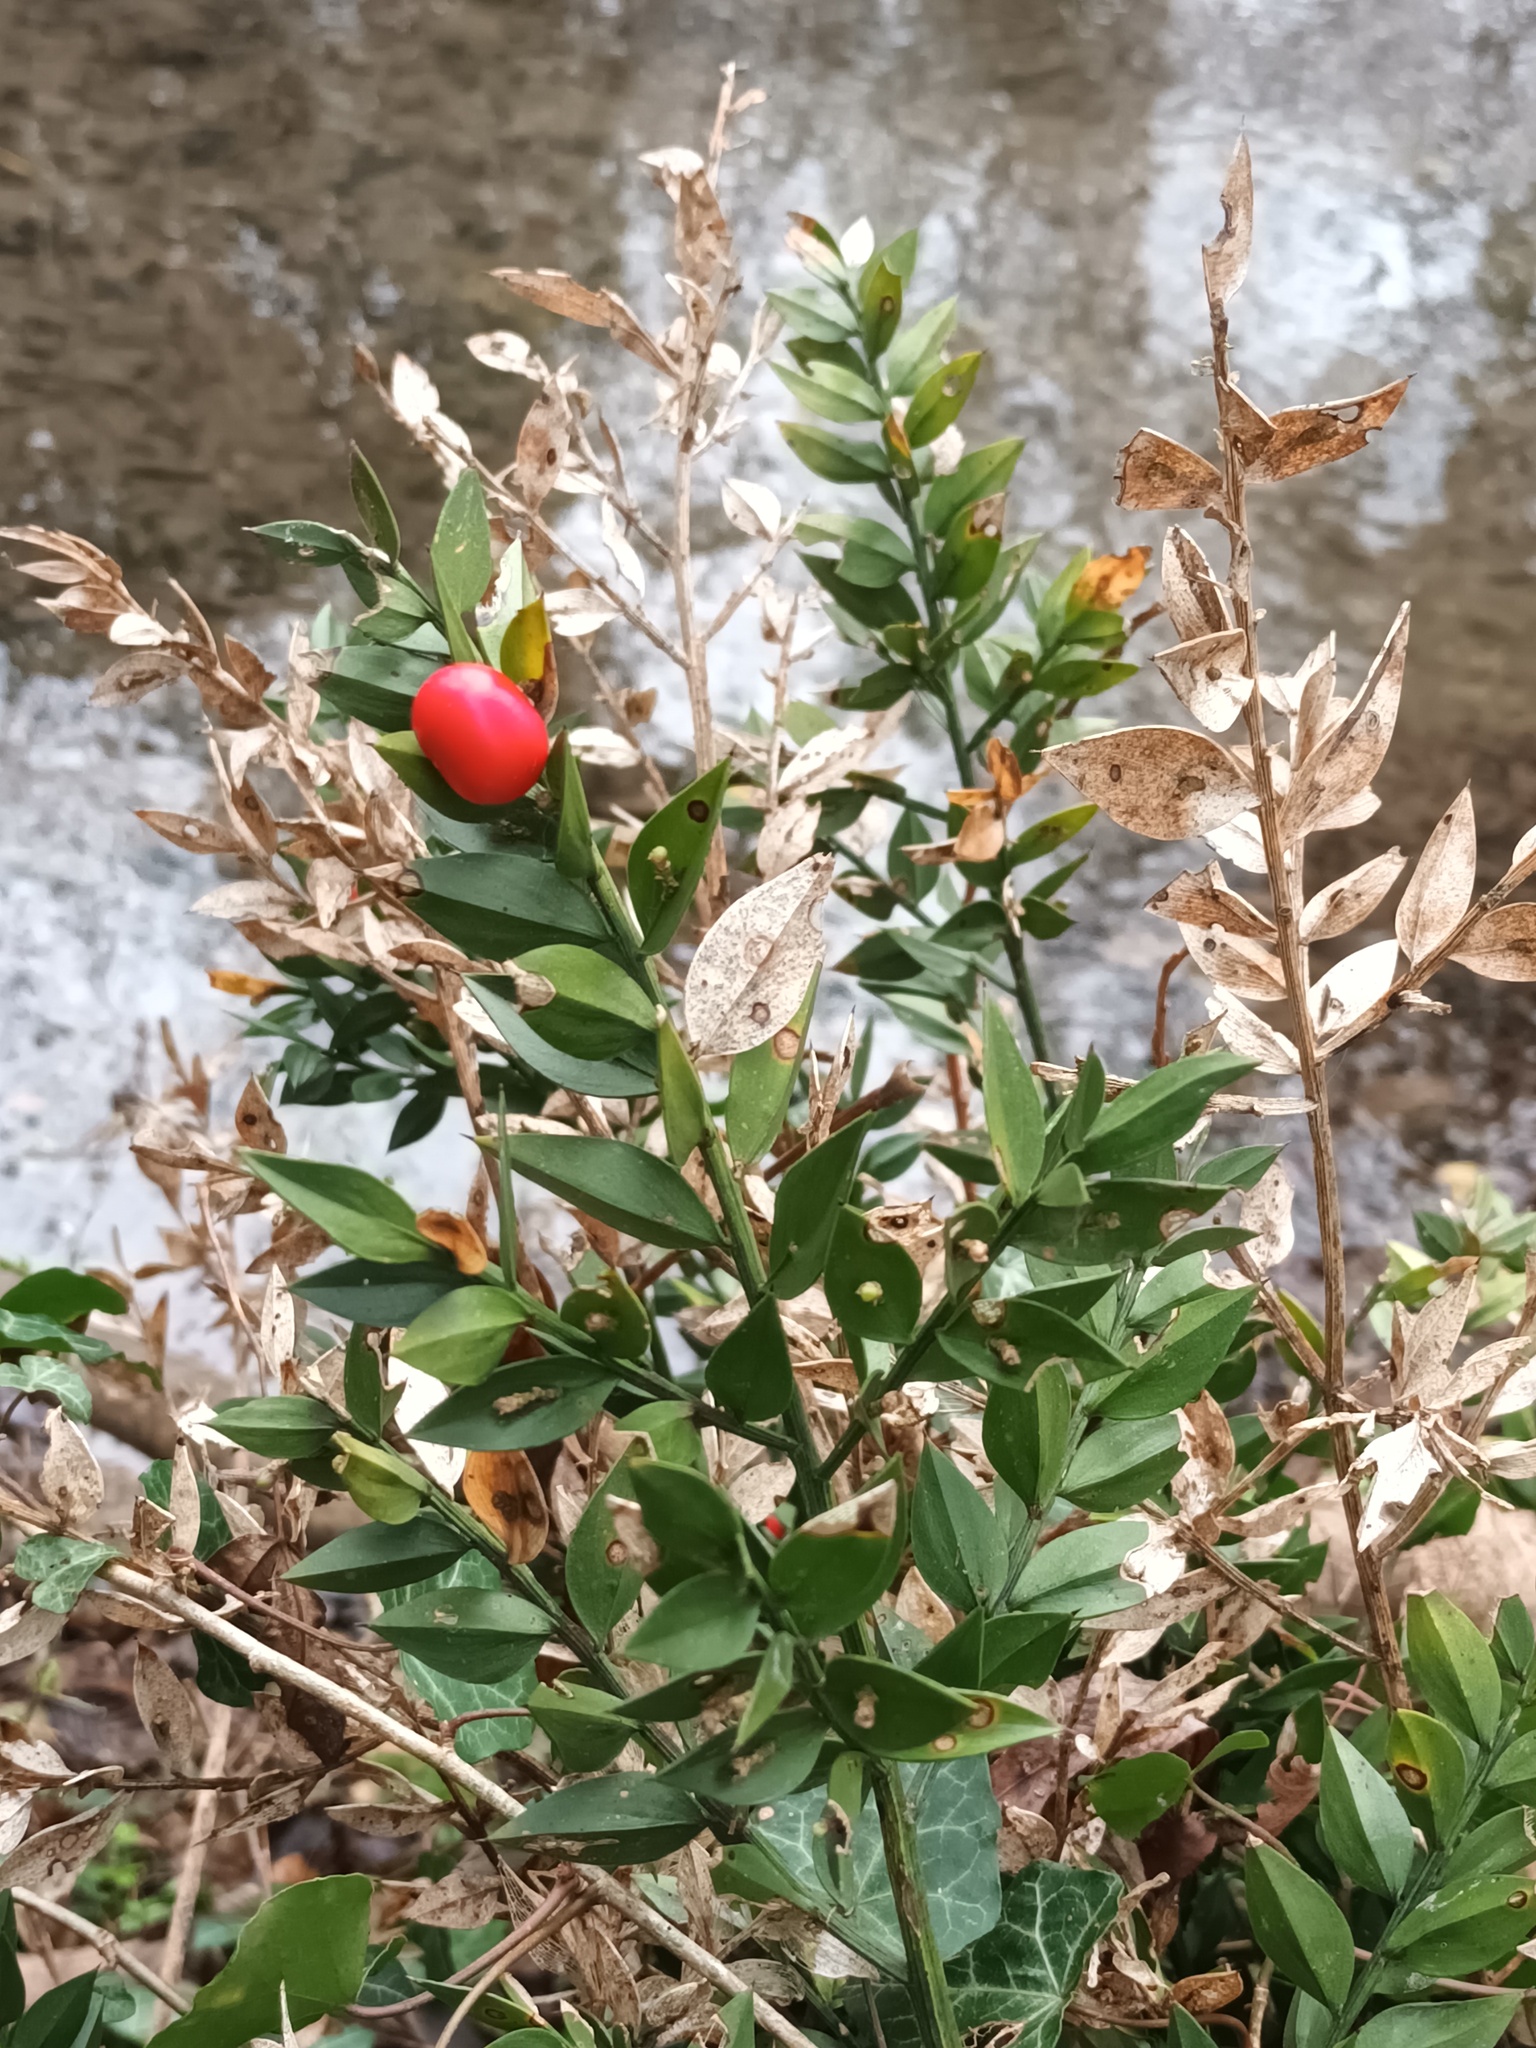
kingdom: Plantae
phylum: Tracheophyta
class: Liliopsida
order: Asparagales
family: Asparagaceae
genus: Ruscus
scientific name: Ruscus aculeatus
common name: Butcher's-broom
